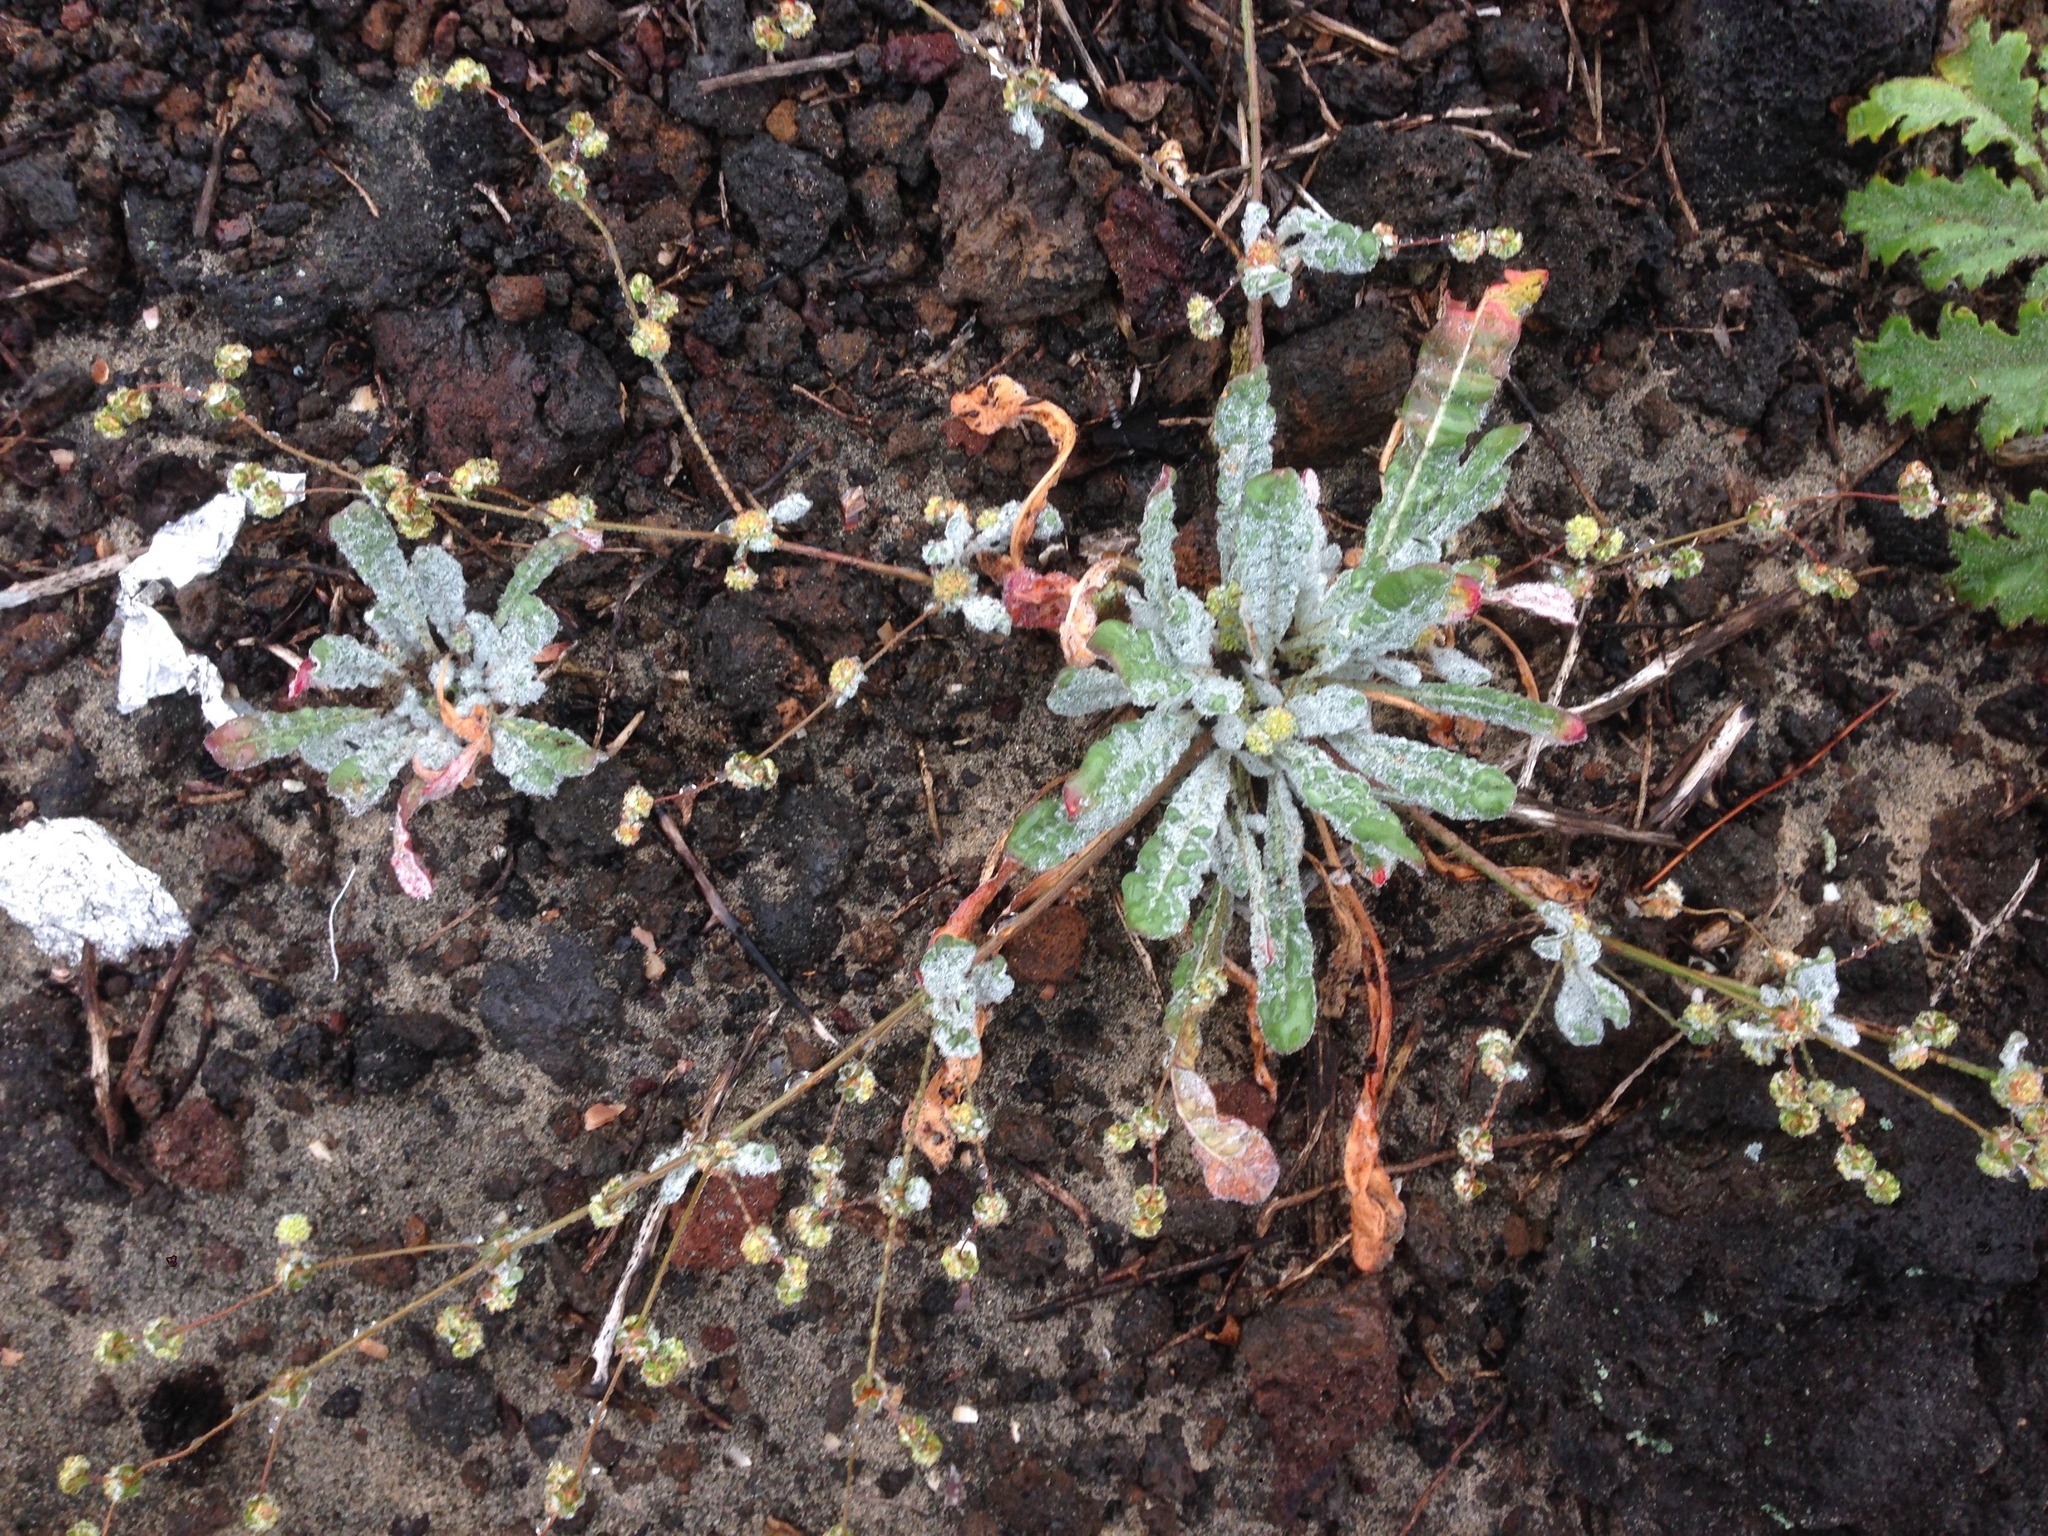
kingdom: Plantae
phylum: Tracheophyta
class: Magnoliopsida
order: Caryophyllales
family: Polygonaceae
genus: Nemacaulis
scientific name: Nemacaulis denudata
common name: Woolly-heads
